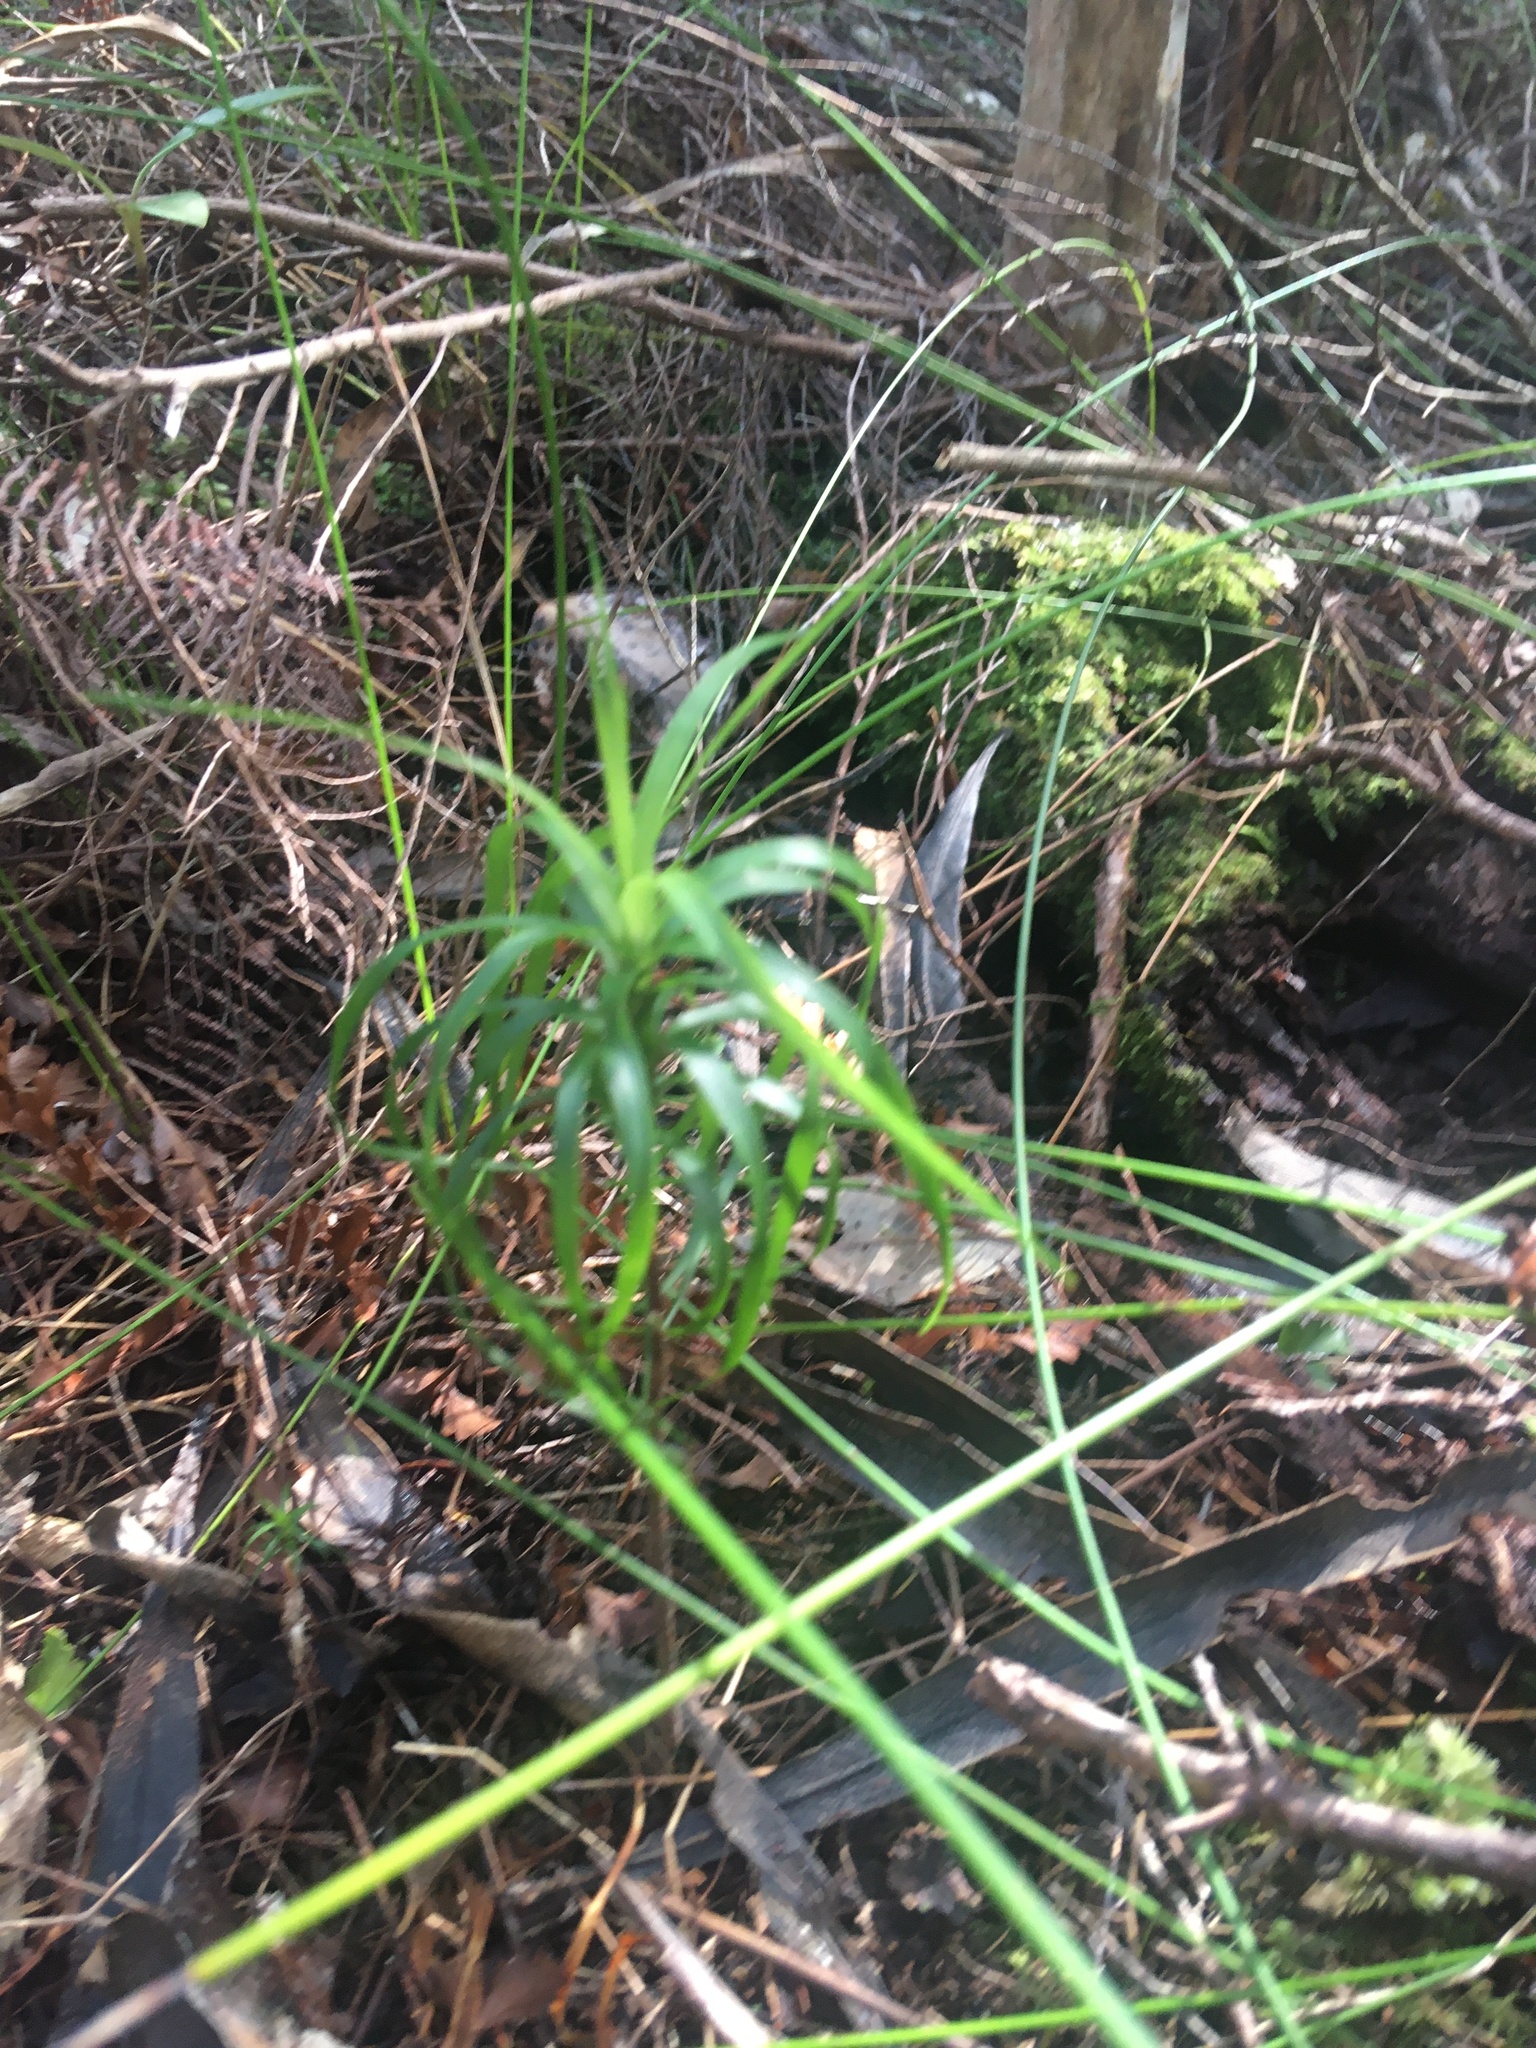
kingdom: Plantae
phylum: Tracheophyta
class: Magnoliopsida
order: Ericales
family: Ericaceae
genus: Dracophyllum
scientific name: Dracophyllum sinclairii
